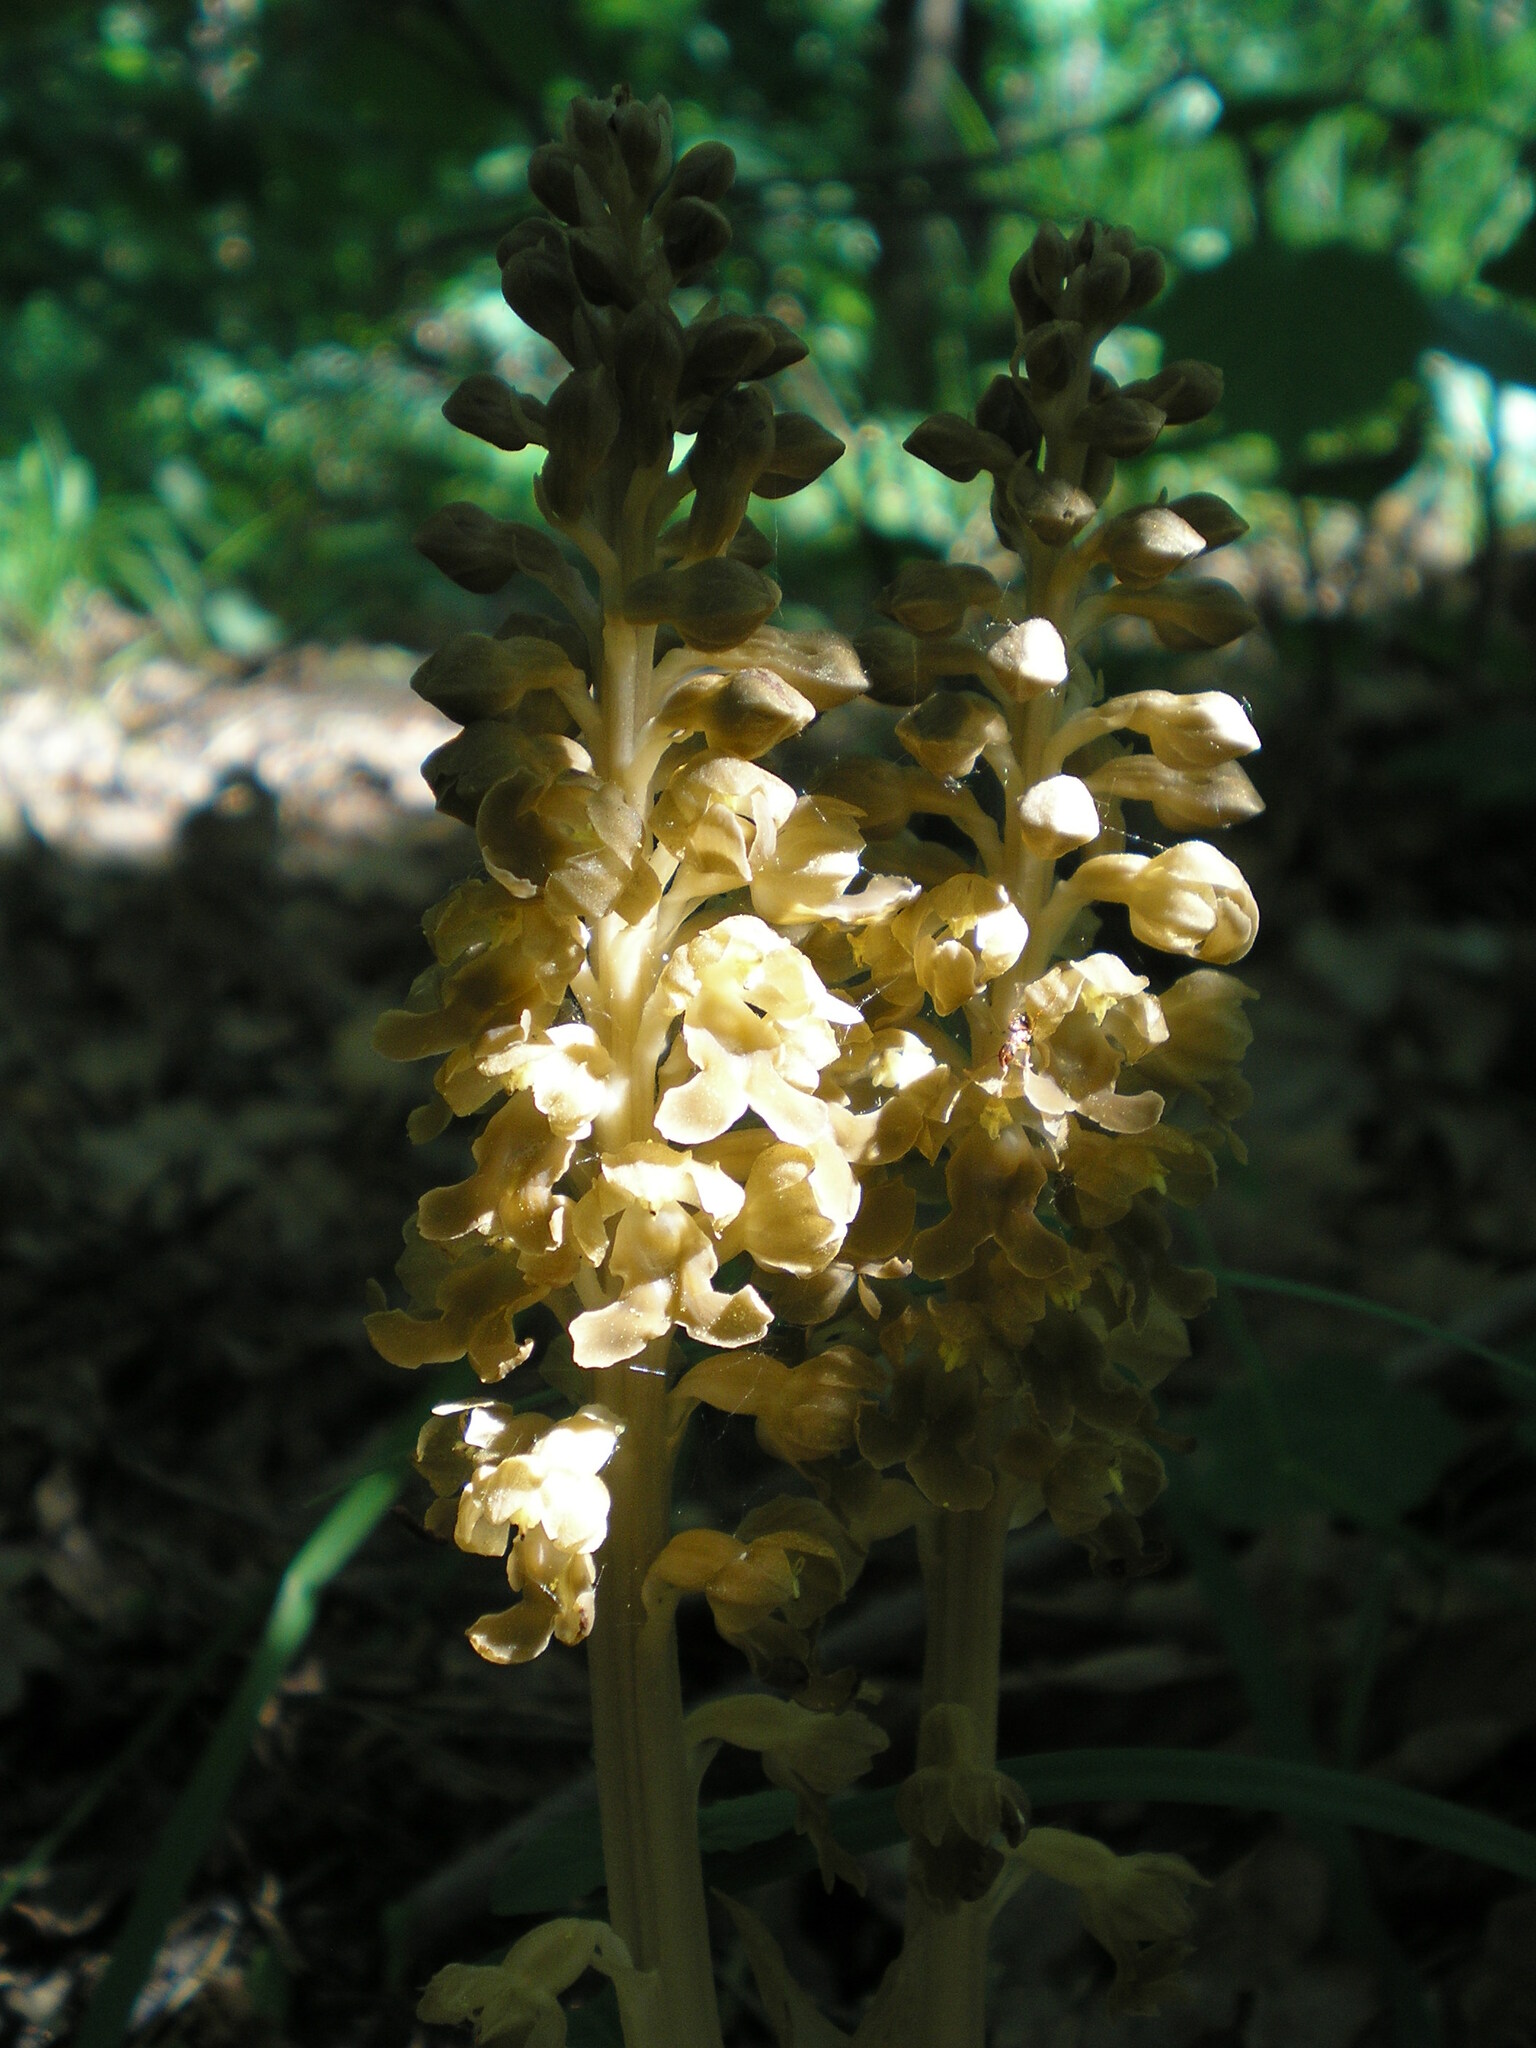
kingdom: Plantae
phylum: Tracheophyta
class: Liliopsida
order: Asparagales
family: Orchidaceae
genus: Neottia
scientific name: Neottia nidus-avis
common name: Bird's-nest orchid
